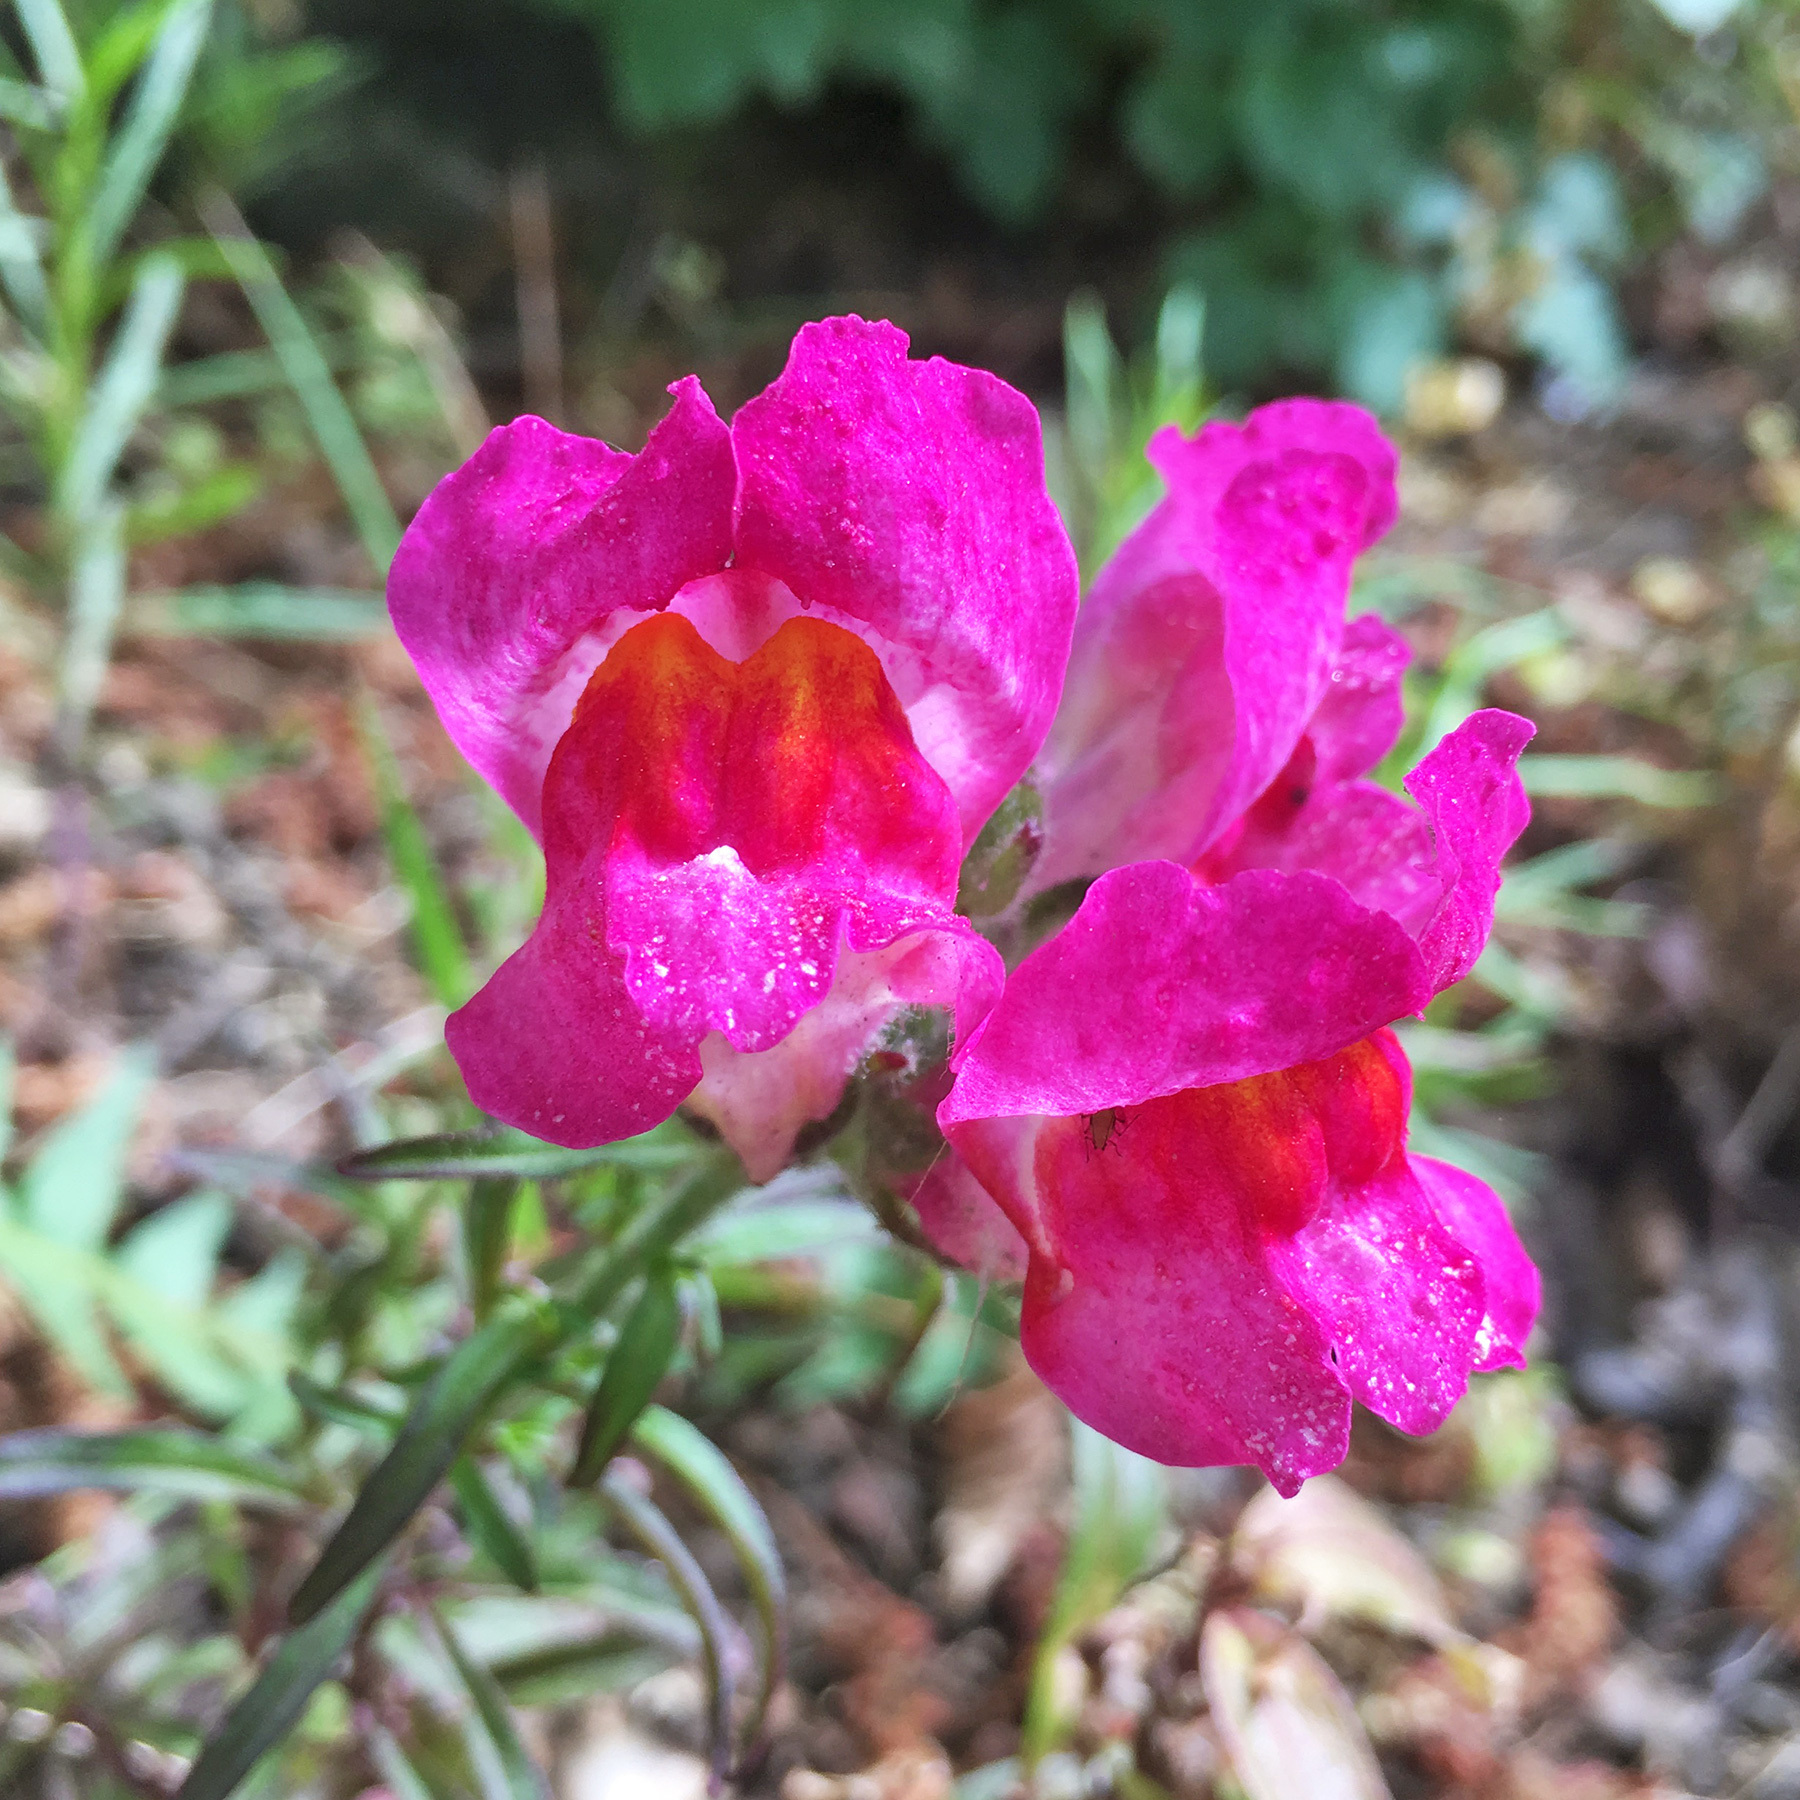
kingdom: Plantae
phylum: Tracheophyta
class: Magnoliopsida
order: Lamiales
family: Plantaginaceae
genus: Antirrhinum
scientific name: Antirrhinum majus
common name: Snapdragon
